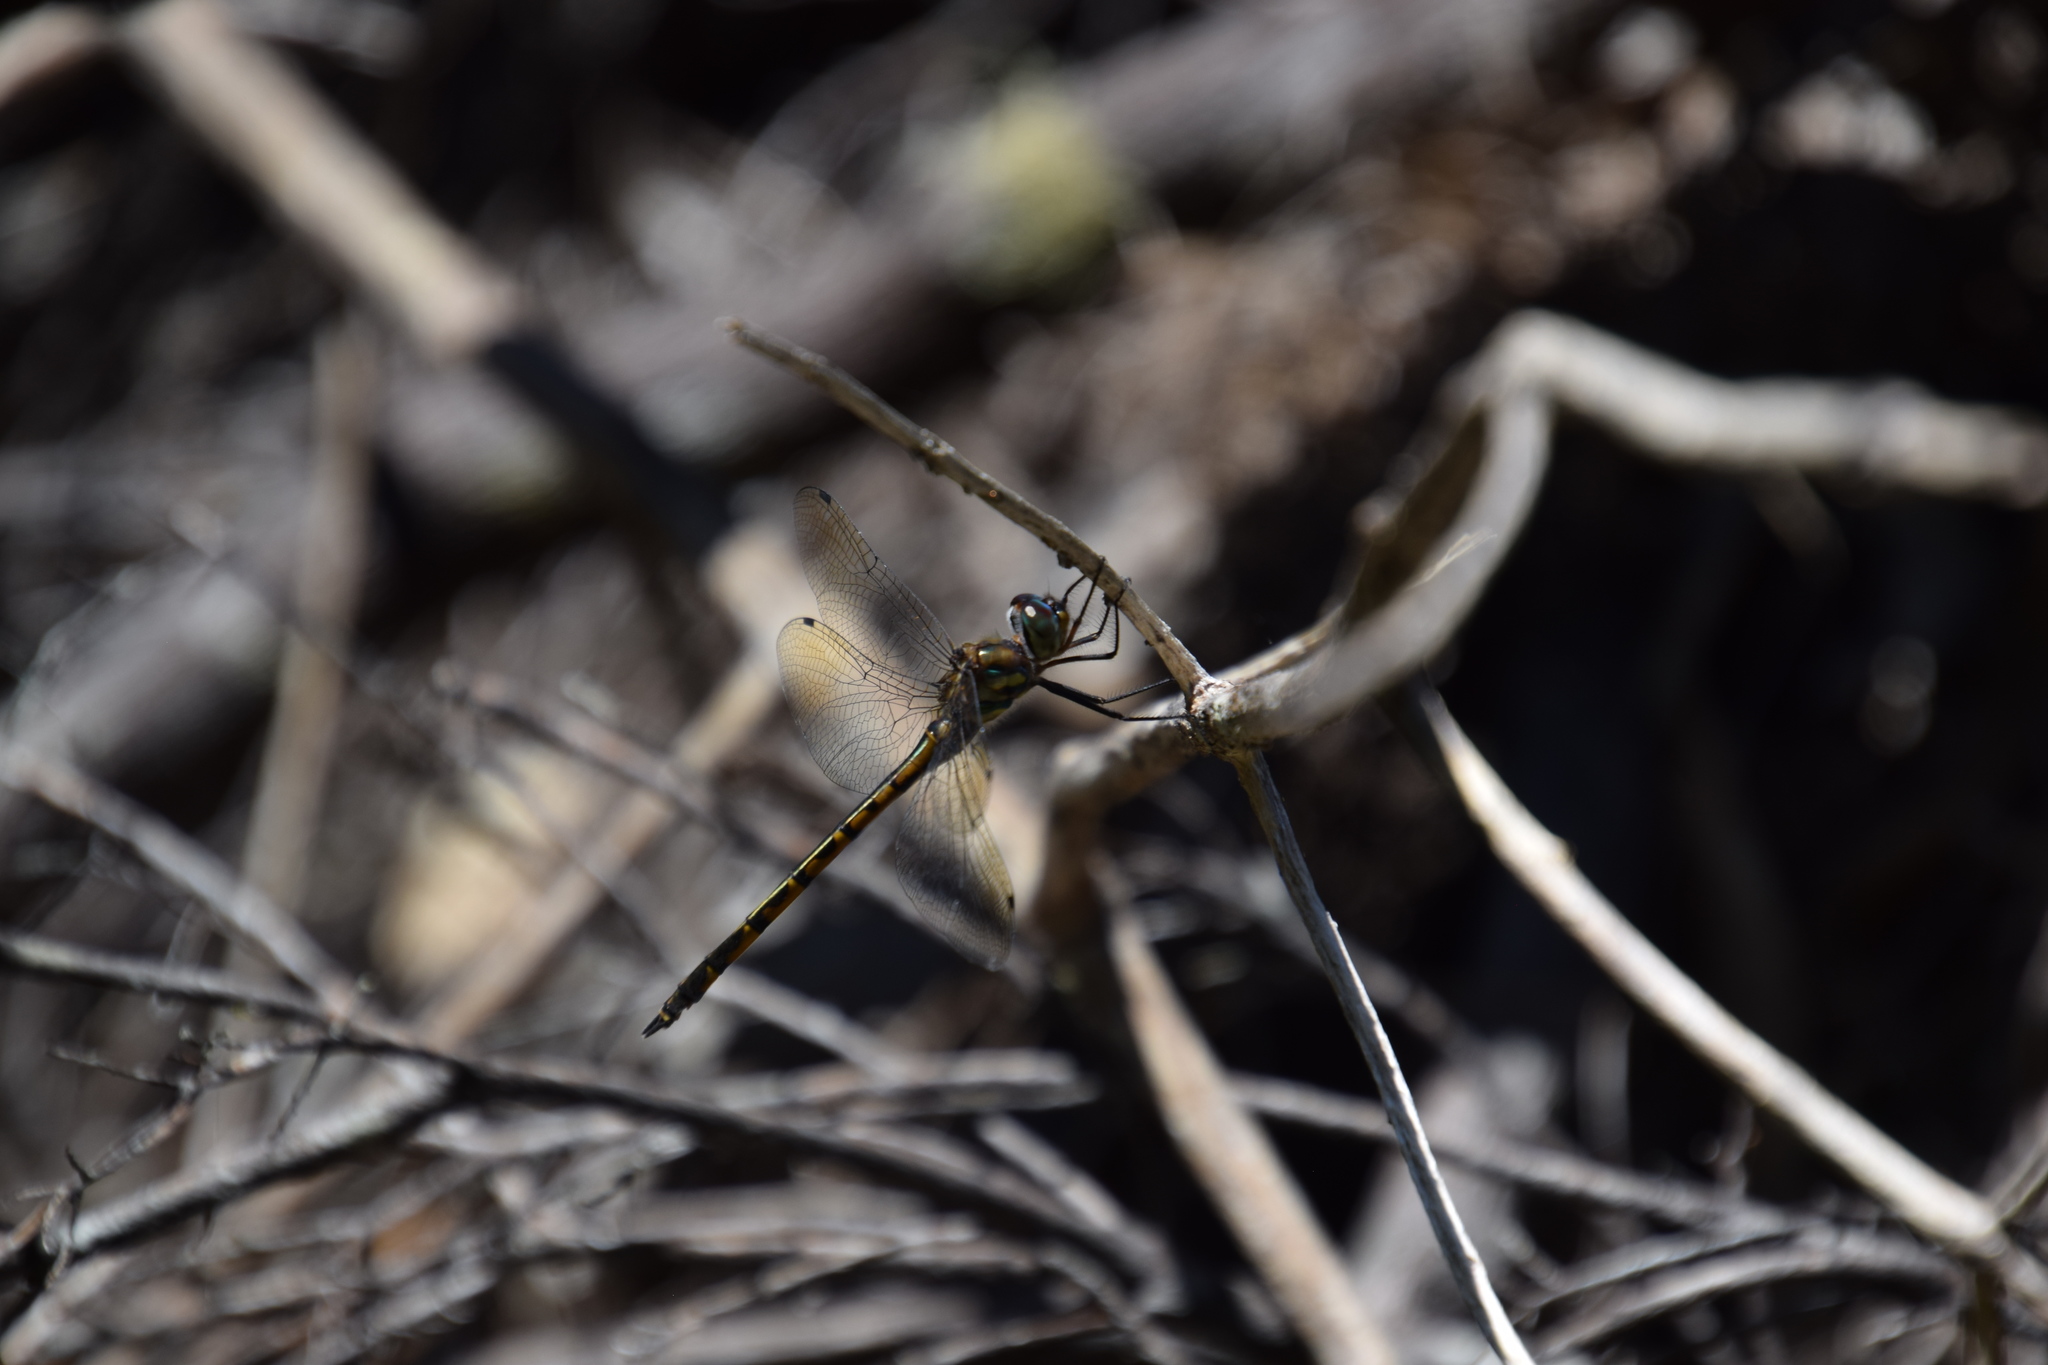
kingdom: Animalia
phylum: Arthropoda
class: Insecta
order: Odonata
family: Corduliidae
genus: Hemicordulia
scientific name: Hemicordulia australiae
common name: Sentry dragonfly
